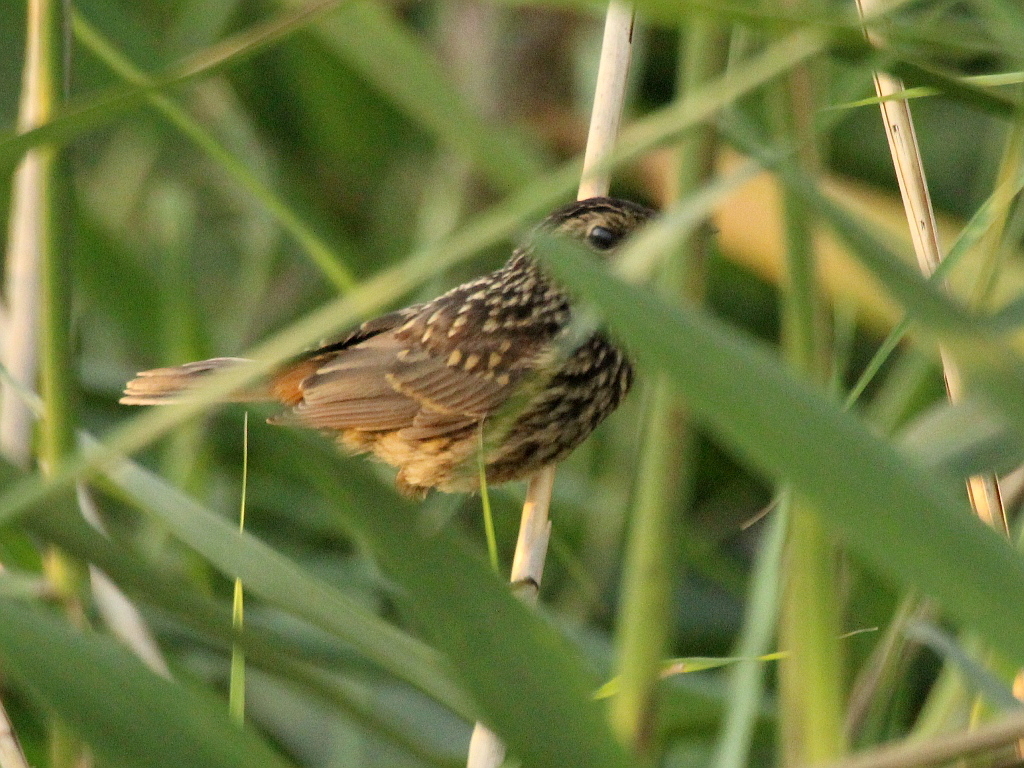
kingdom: Animalia
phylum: Chordata
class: Aves
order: Passeriformes
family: Muscicapidae
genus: Luscinia
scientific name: Luscinia svecica
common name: Bluethroat
